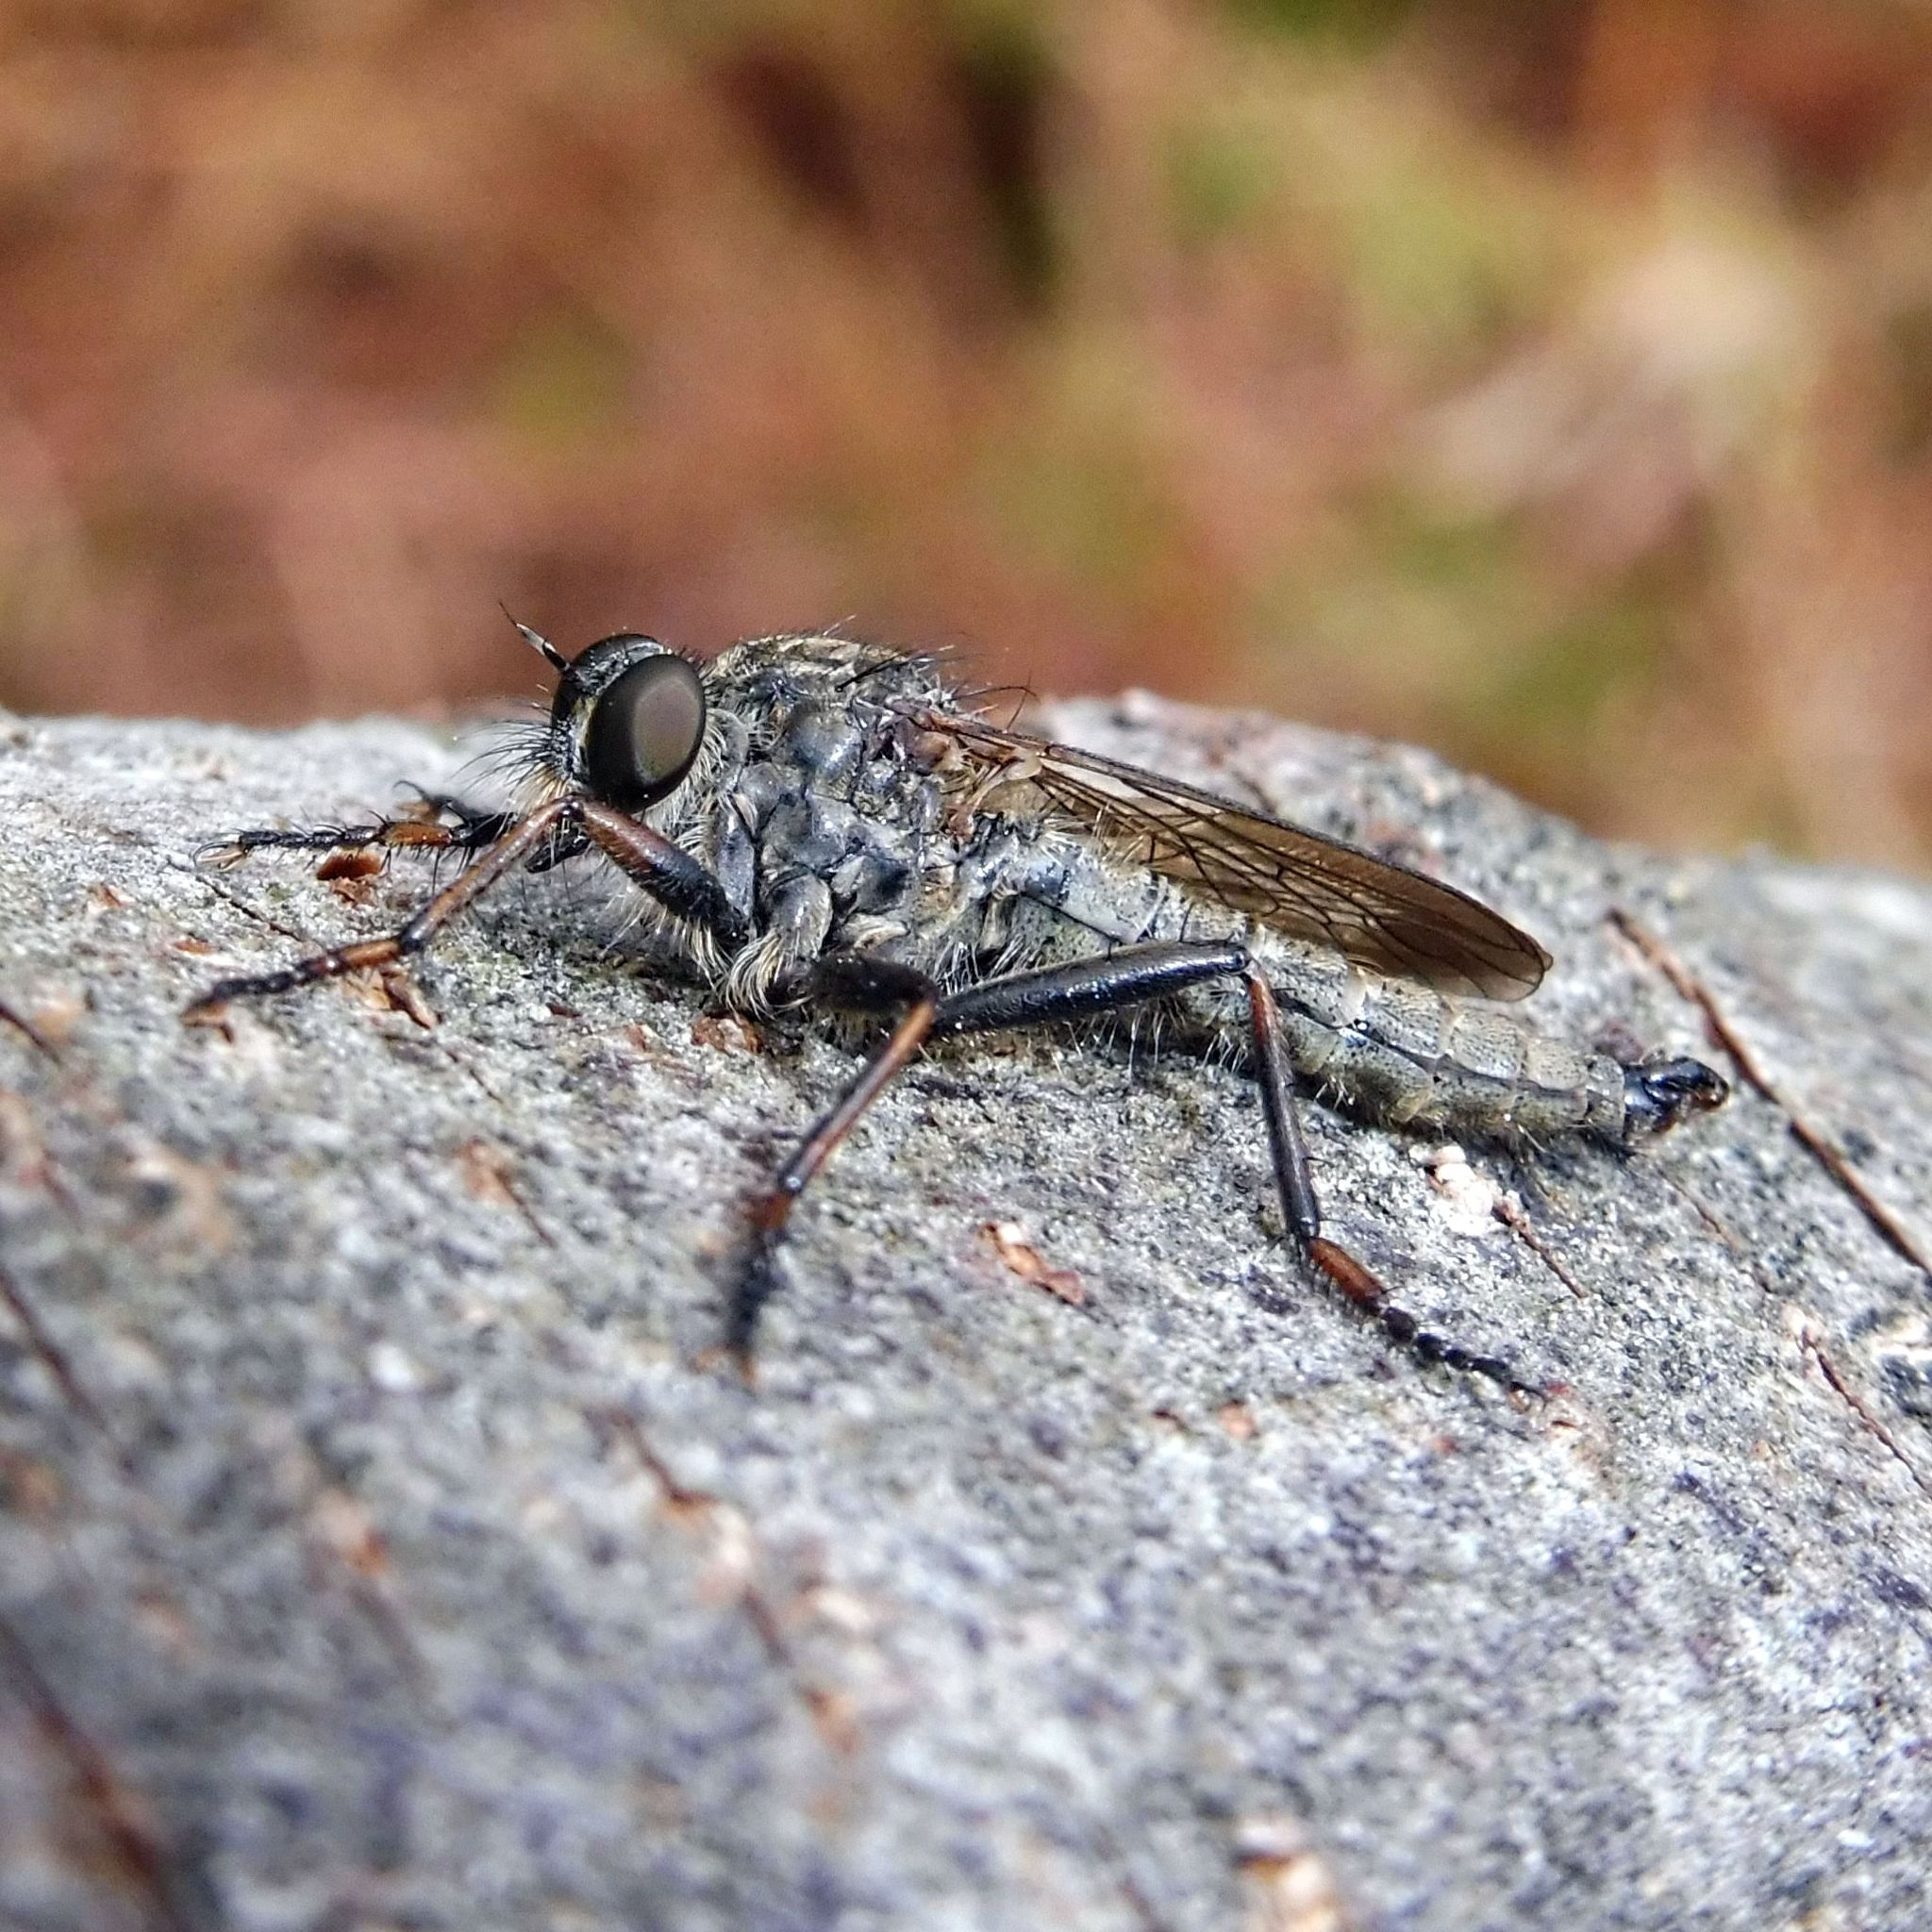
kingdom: Animalia
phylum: Arthropoda
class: Insecta
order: Diptera
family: Asilidae
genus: Machimus
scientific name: Machimus atricapillus
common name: Kite-tailed robberfly
